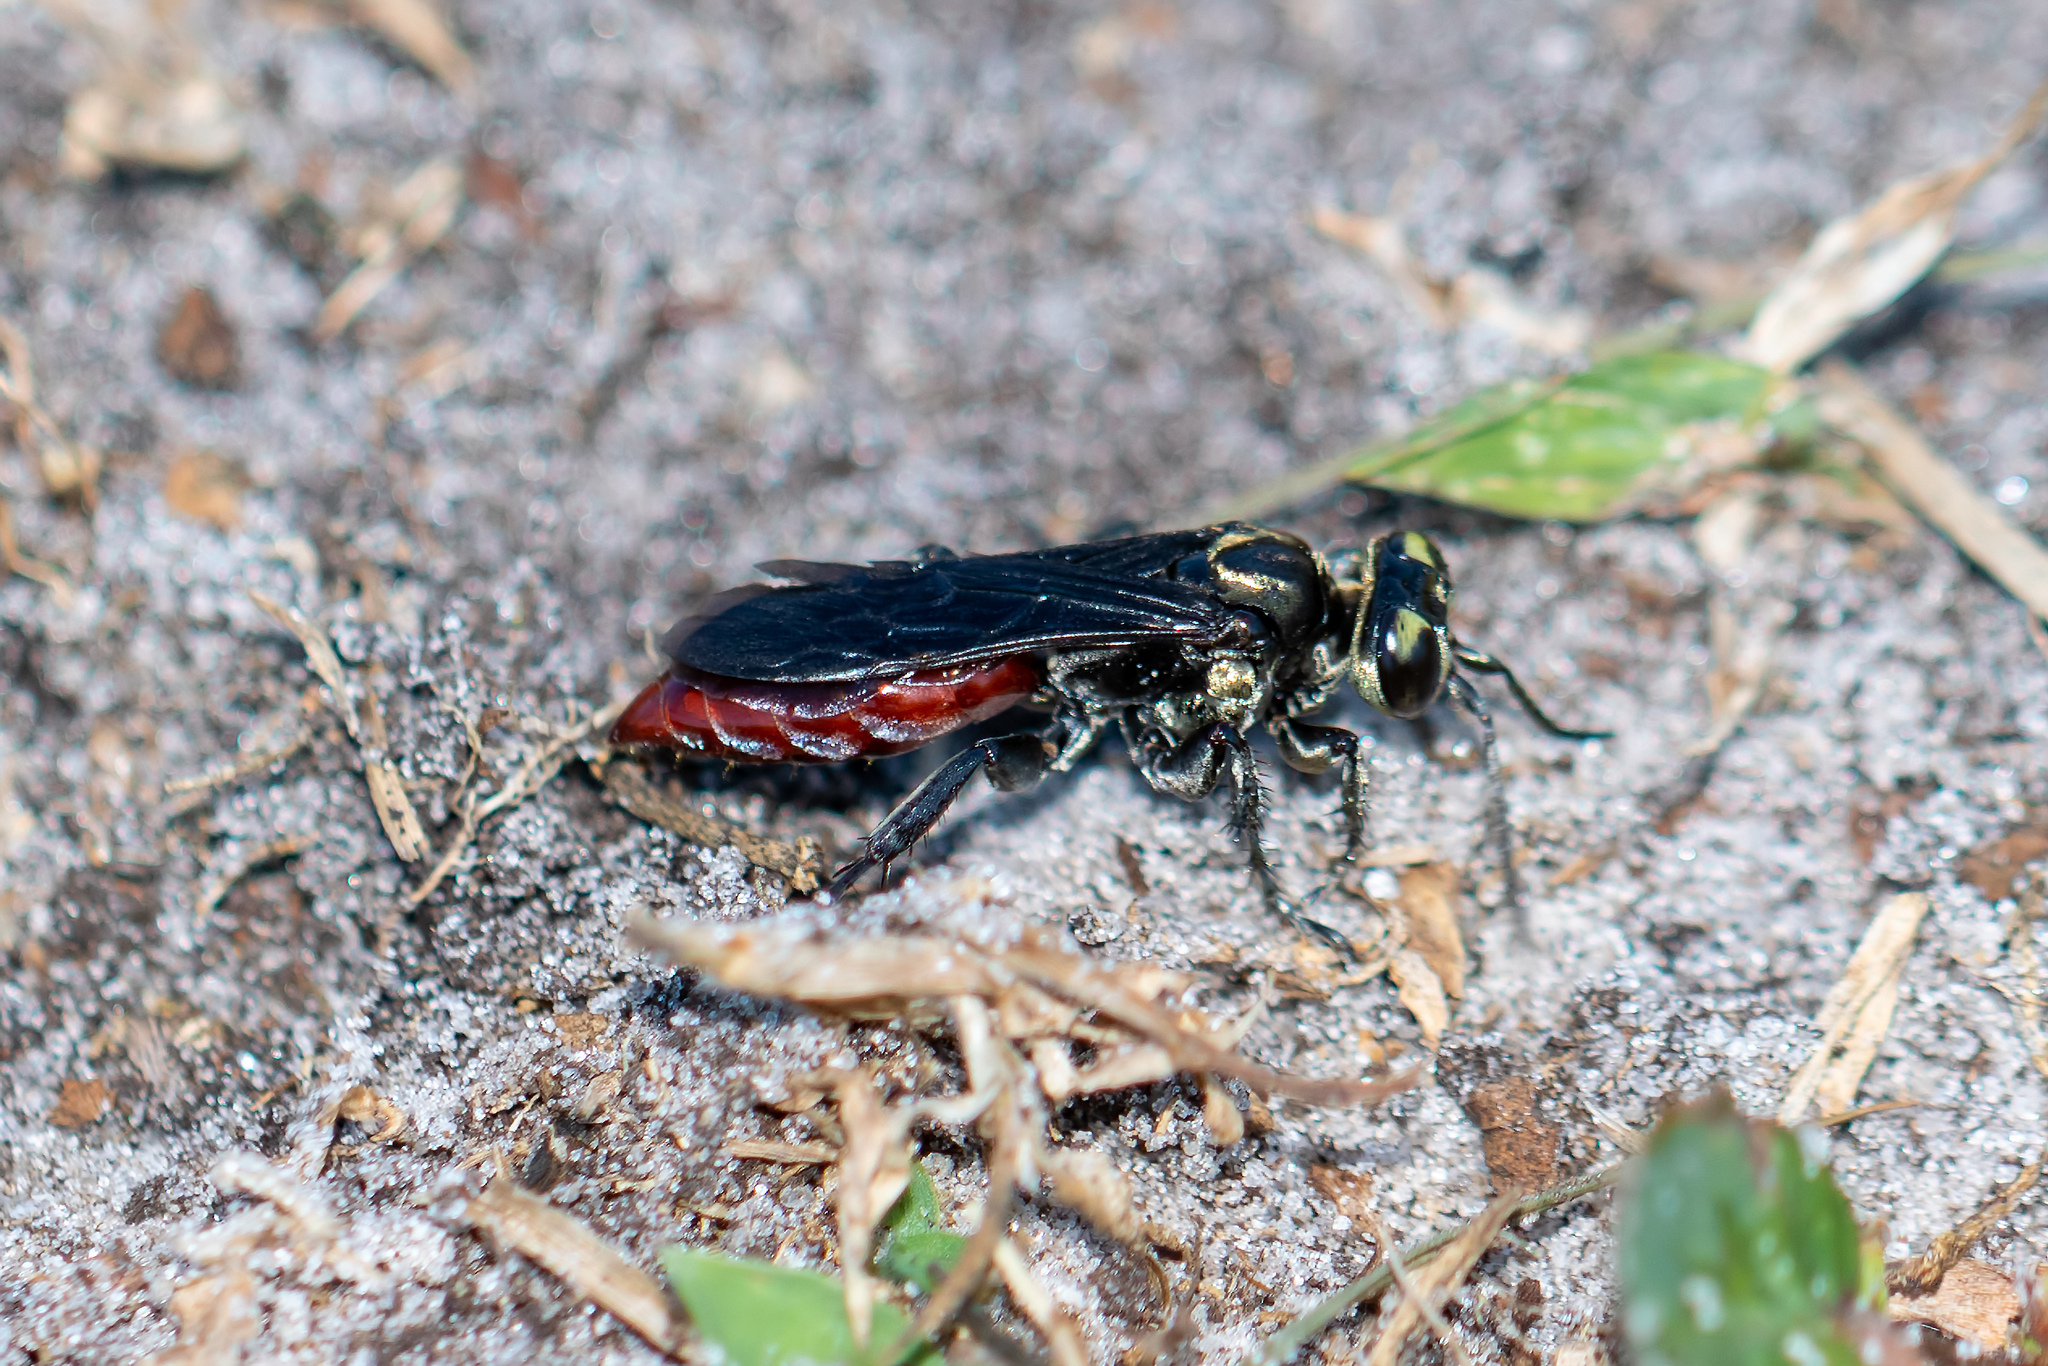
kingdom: Animalia
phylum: Arthropoda
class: Insecta
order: Hymenoptera
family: Crabronidae
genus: Larra
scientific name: Larra bicolor
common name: Wasp
